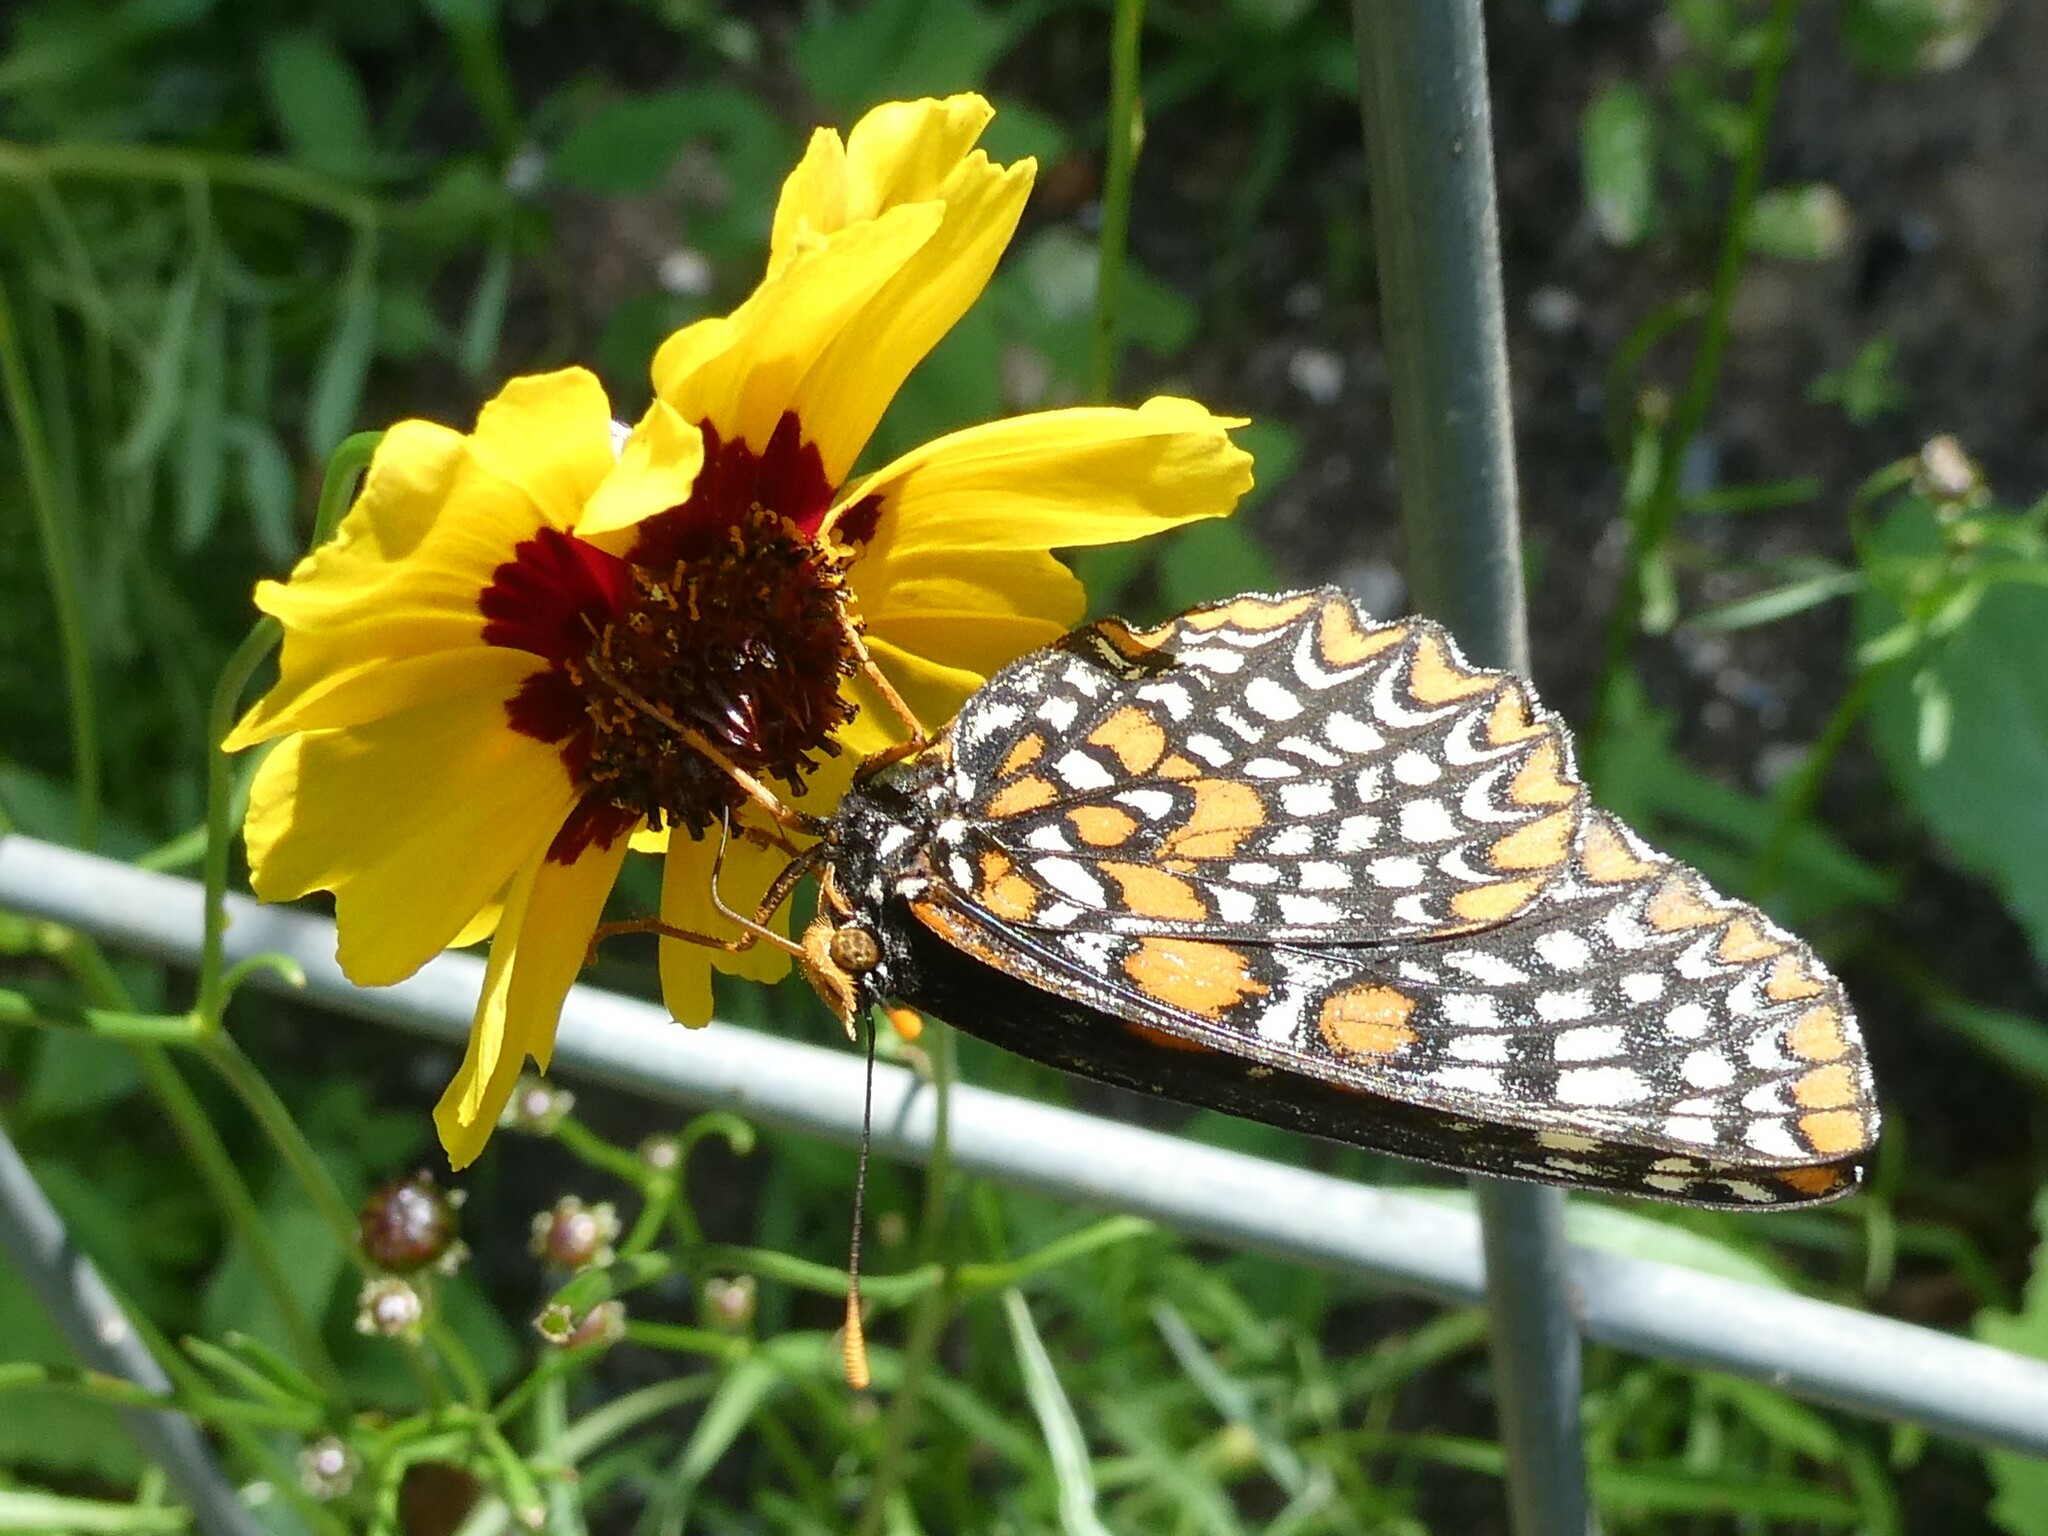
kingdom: Animalia
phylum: Arthropoda
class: Insecta
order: Lepidoptera
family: Nymphalidae
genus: Euphydryas
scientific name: Euphydryas phaeton
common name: Baltimore checkerspot
